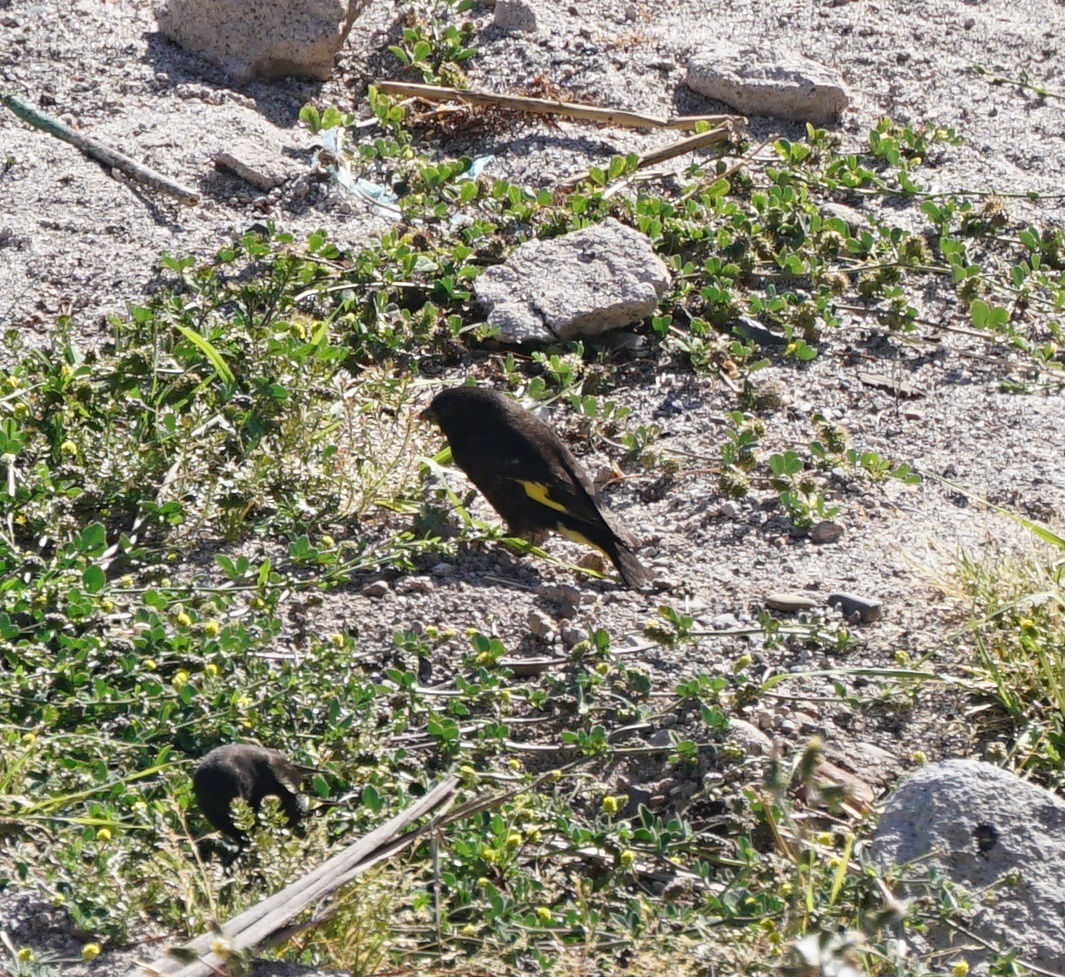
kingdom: Animalia
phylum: Chordata
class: Aves
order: Passeriformes
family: Fringillidae
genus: Spinus
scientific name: Spinus atratus
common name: Black siskin
